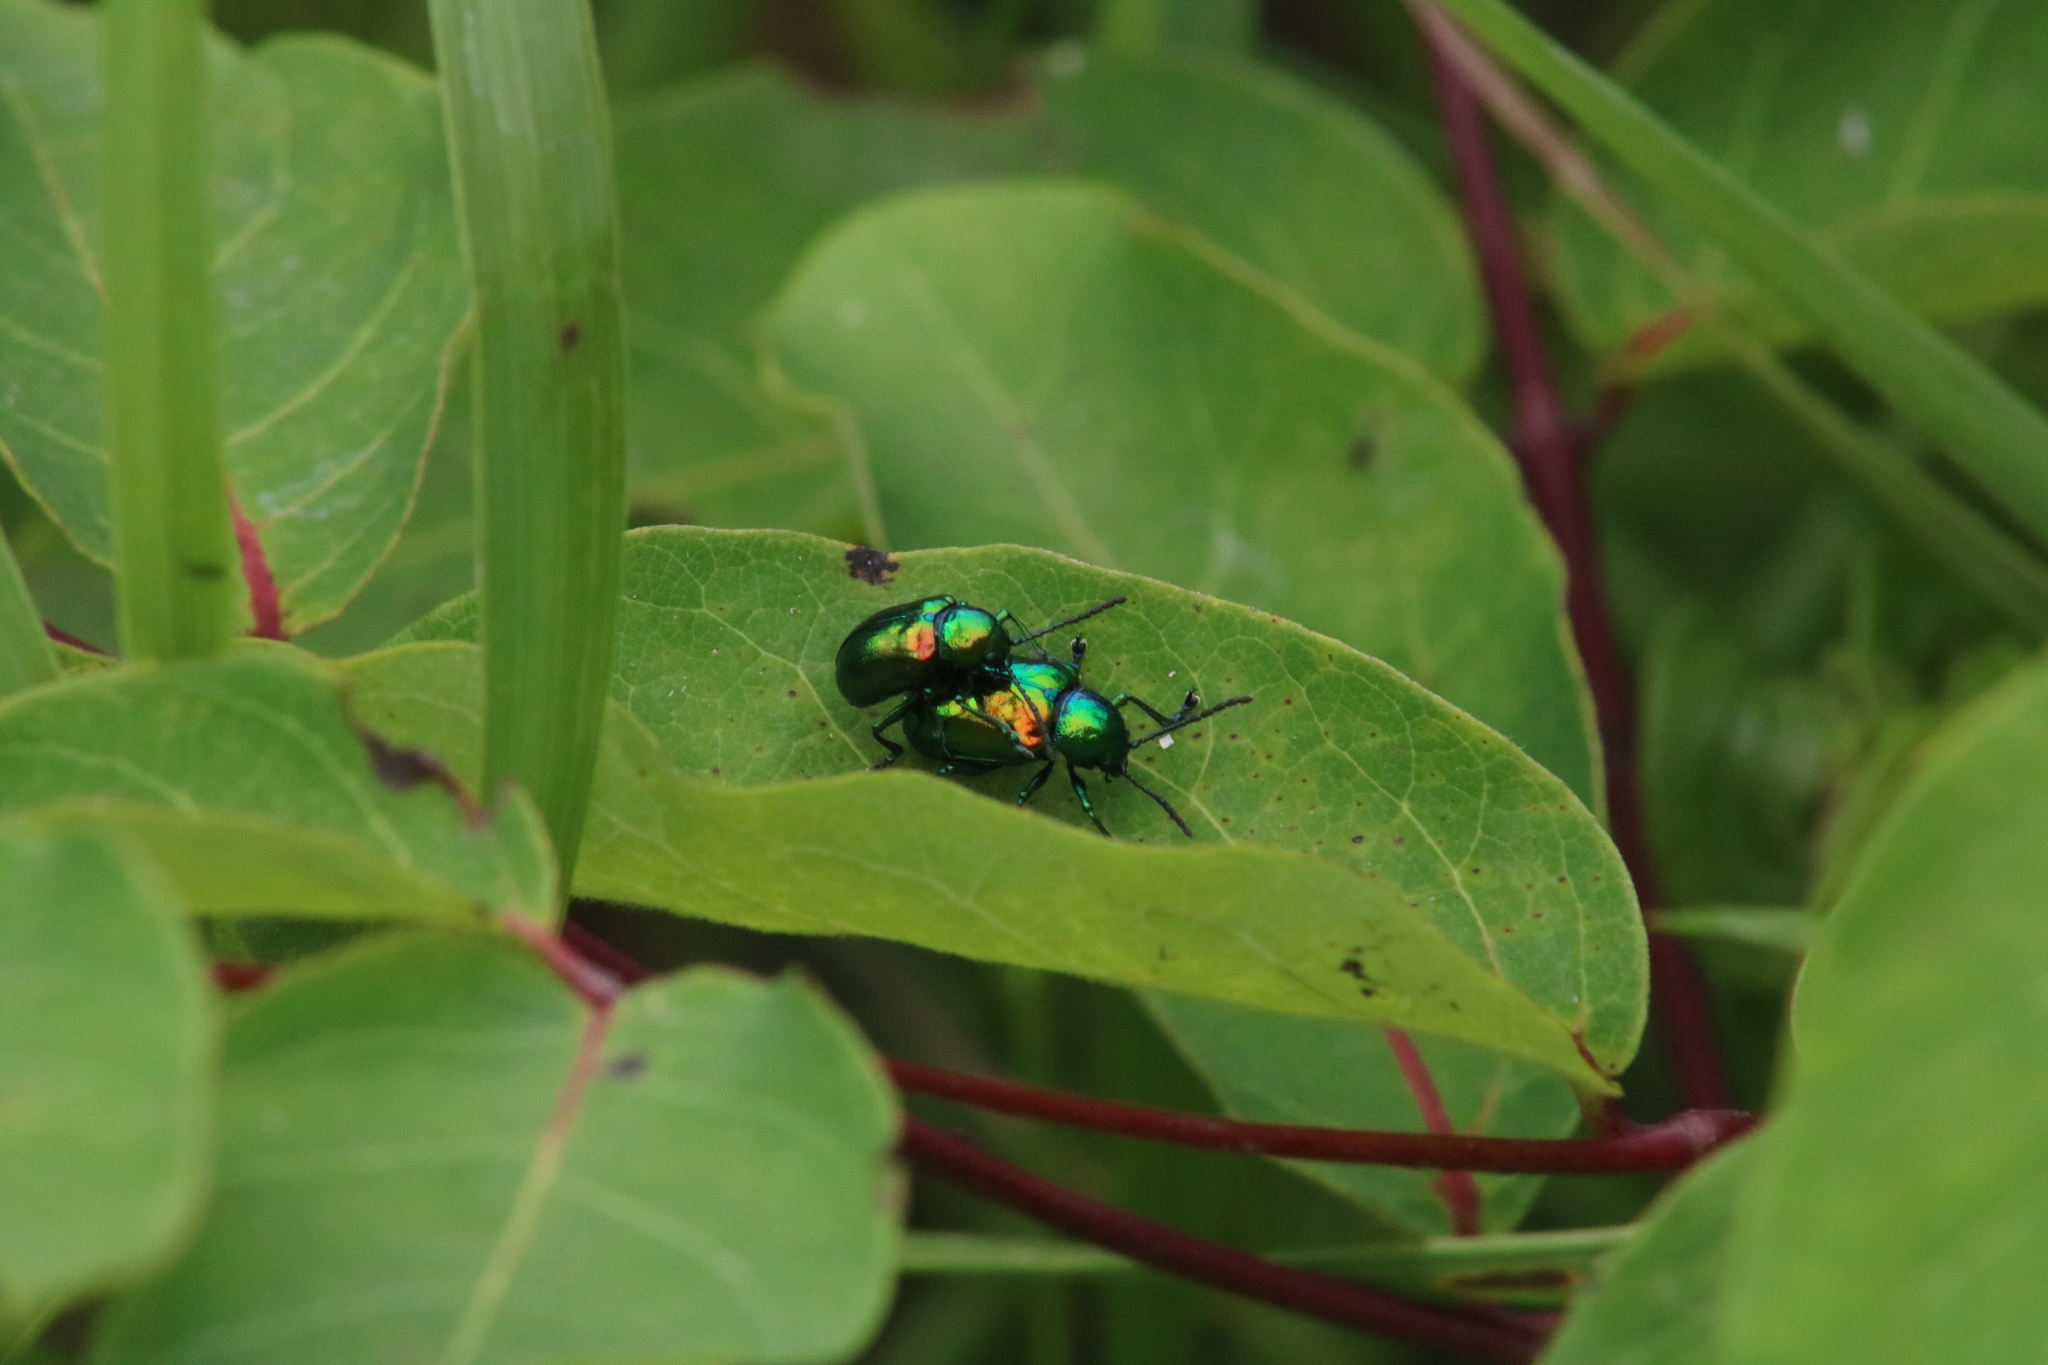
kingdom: Animalia
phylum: Arthropoda
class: Insecta
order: Coleoptera
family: Chrysomelidae
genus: Chrysochus
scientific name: Chrysochus auratus
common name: Dogbane leaf beetle
